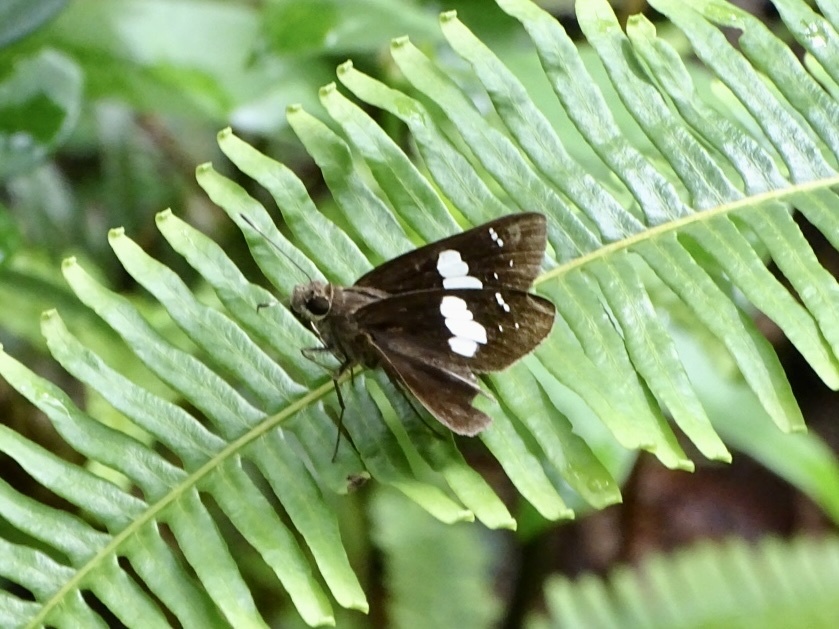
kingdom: Animalia
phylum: Arthropoda
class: Insecta
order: Lepidoptera
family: Hesperiidae
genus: Notocrypta
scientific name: Notocrypta curvifascia
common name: Restricted demon
